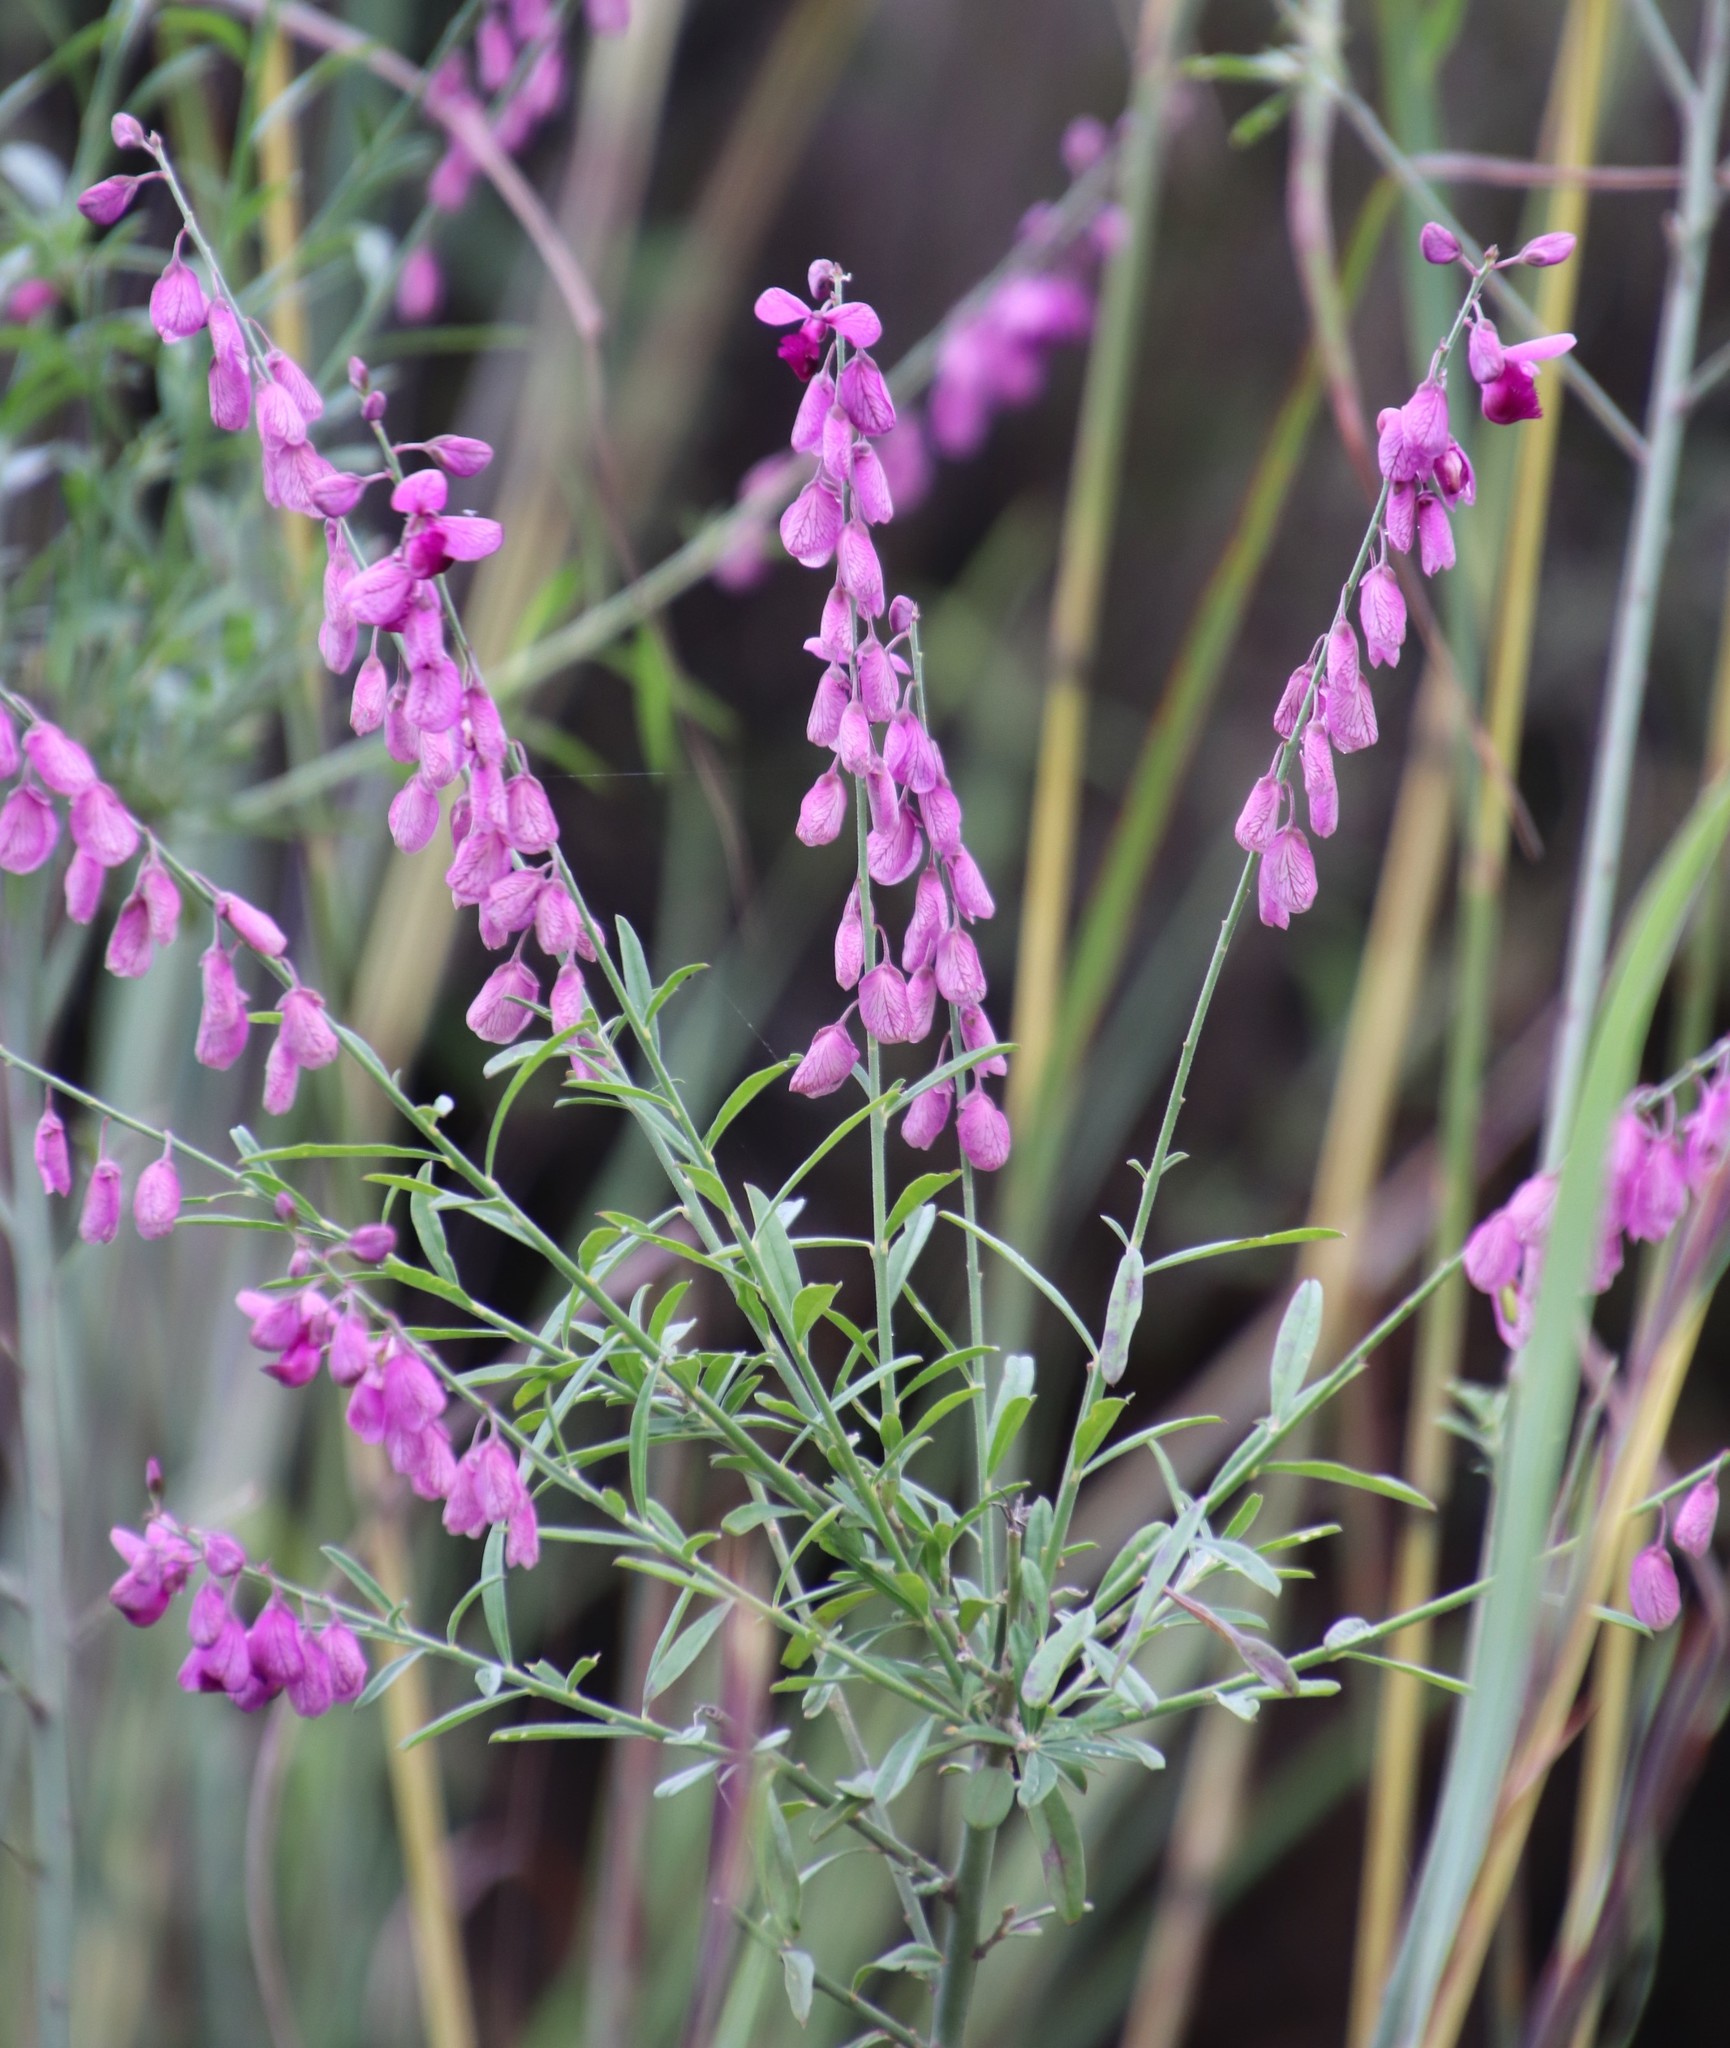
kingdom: Plantae
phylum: Tracheophyta
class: Magnoliopsida
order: Fabales
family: Polygalaceae
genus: Polygala
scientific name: Polygala virgata
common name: Milkwort
